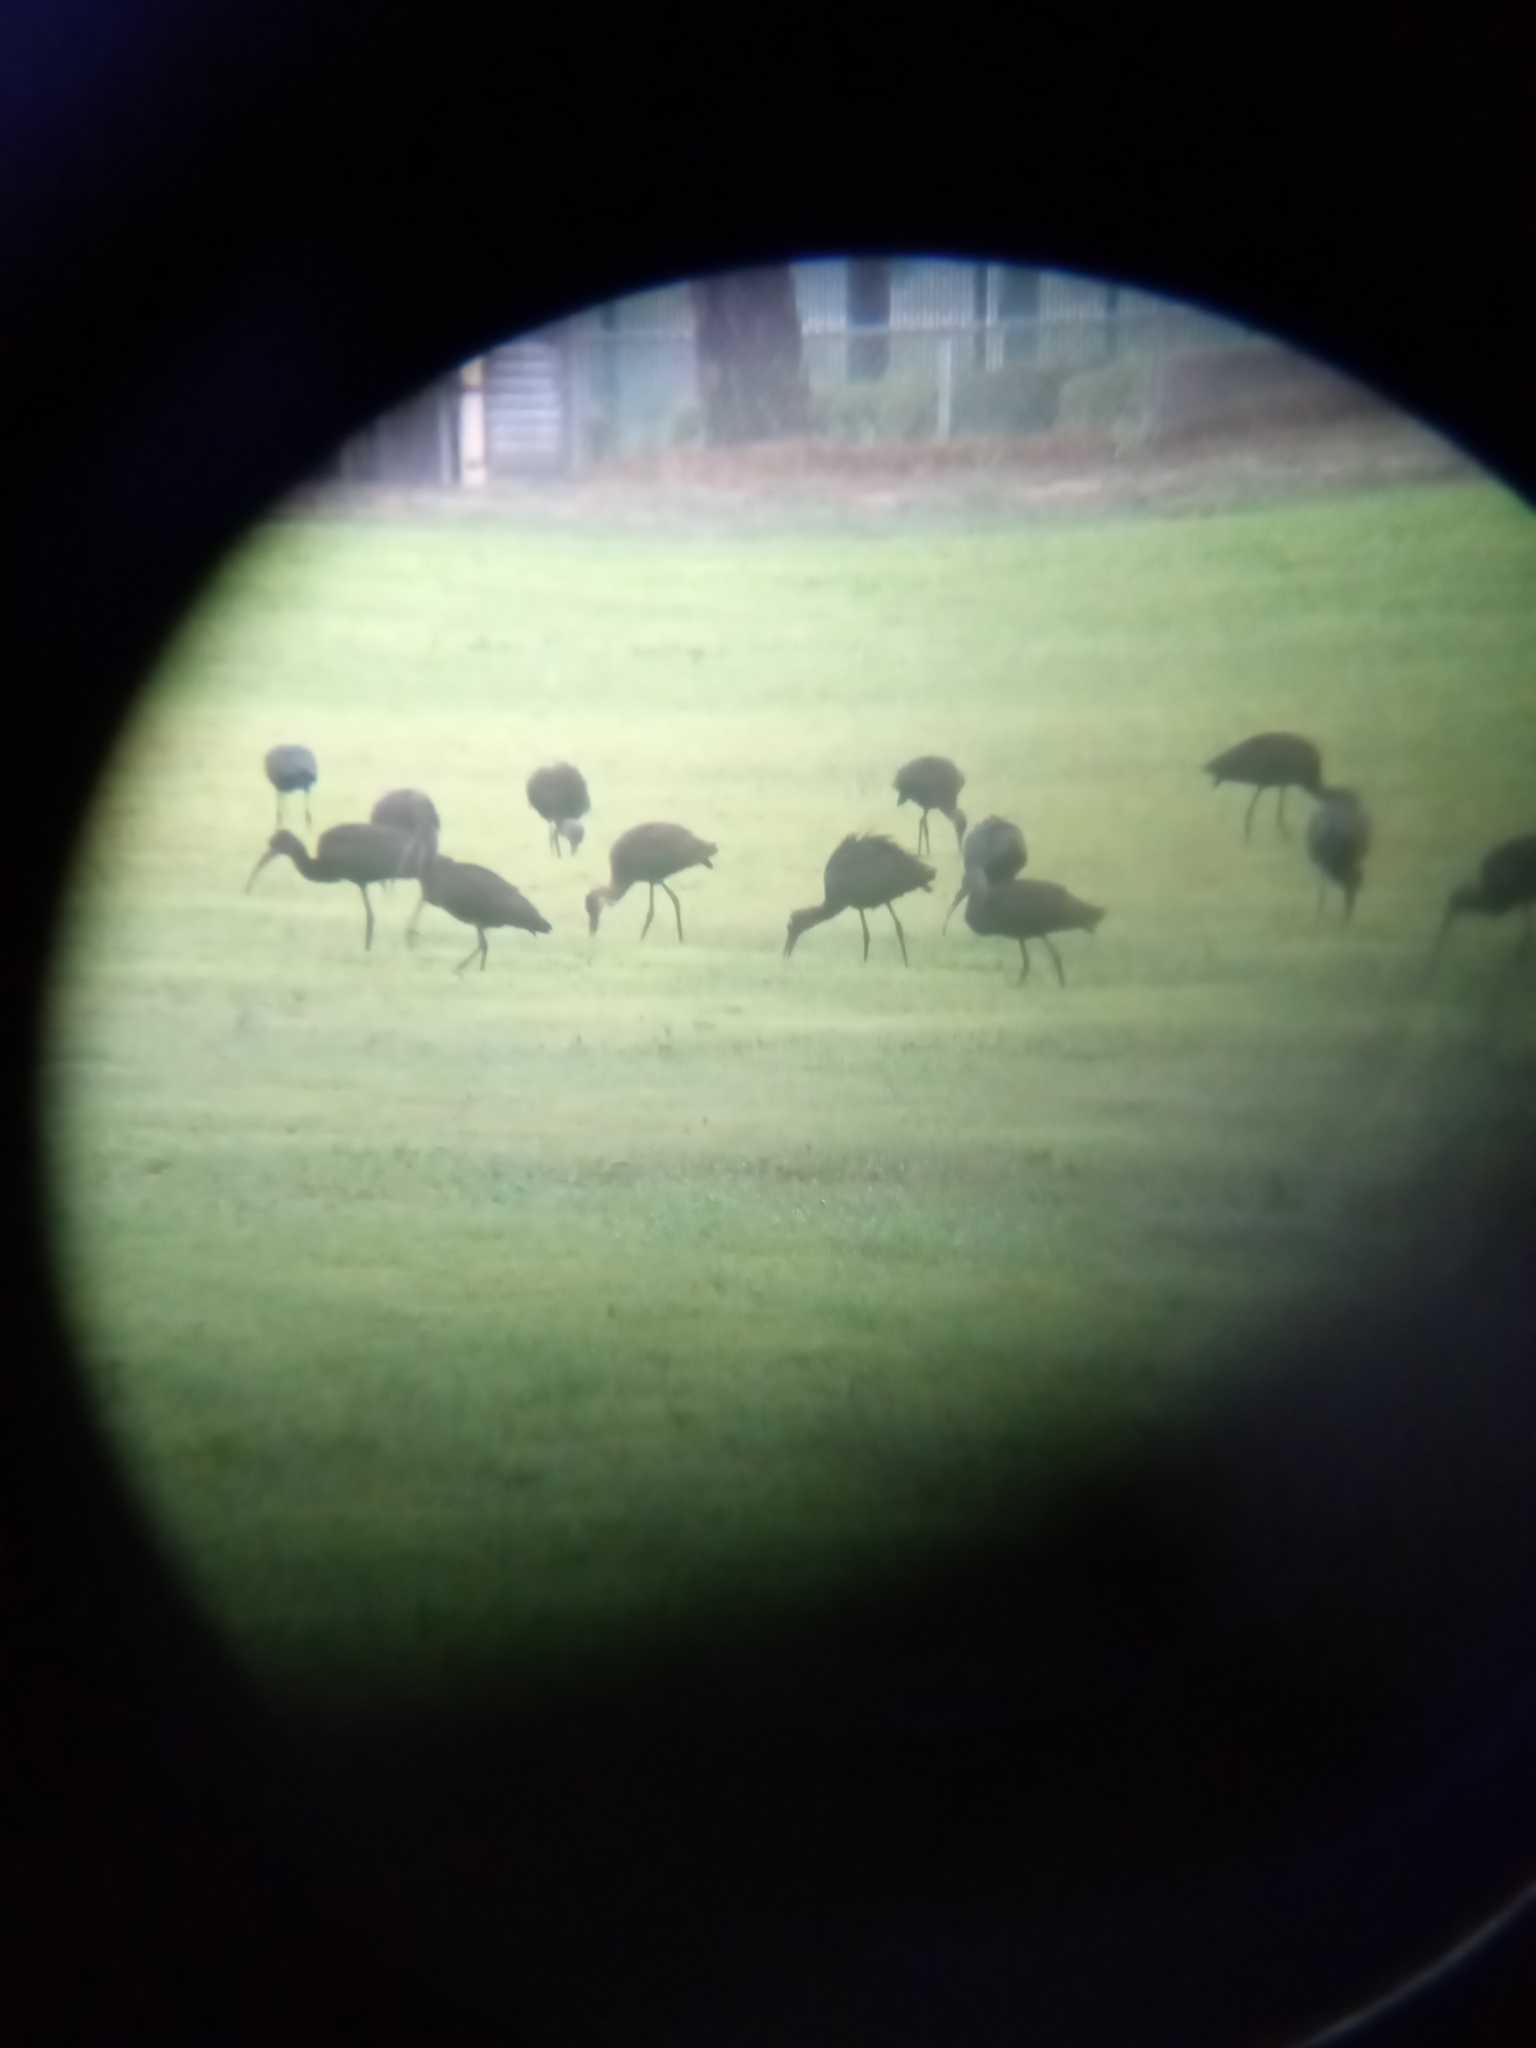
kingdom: Animalia
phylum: Chordata
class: Aves
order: Pelecaniformes
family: Threskiornithidae
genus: Plegadis
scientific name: Plegadis chihi
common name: White-faced ibis
